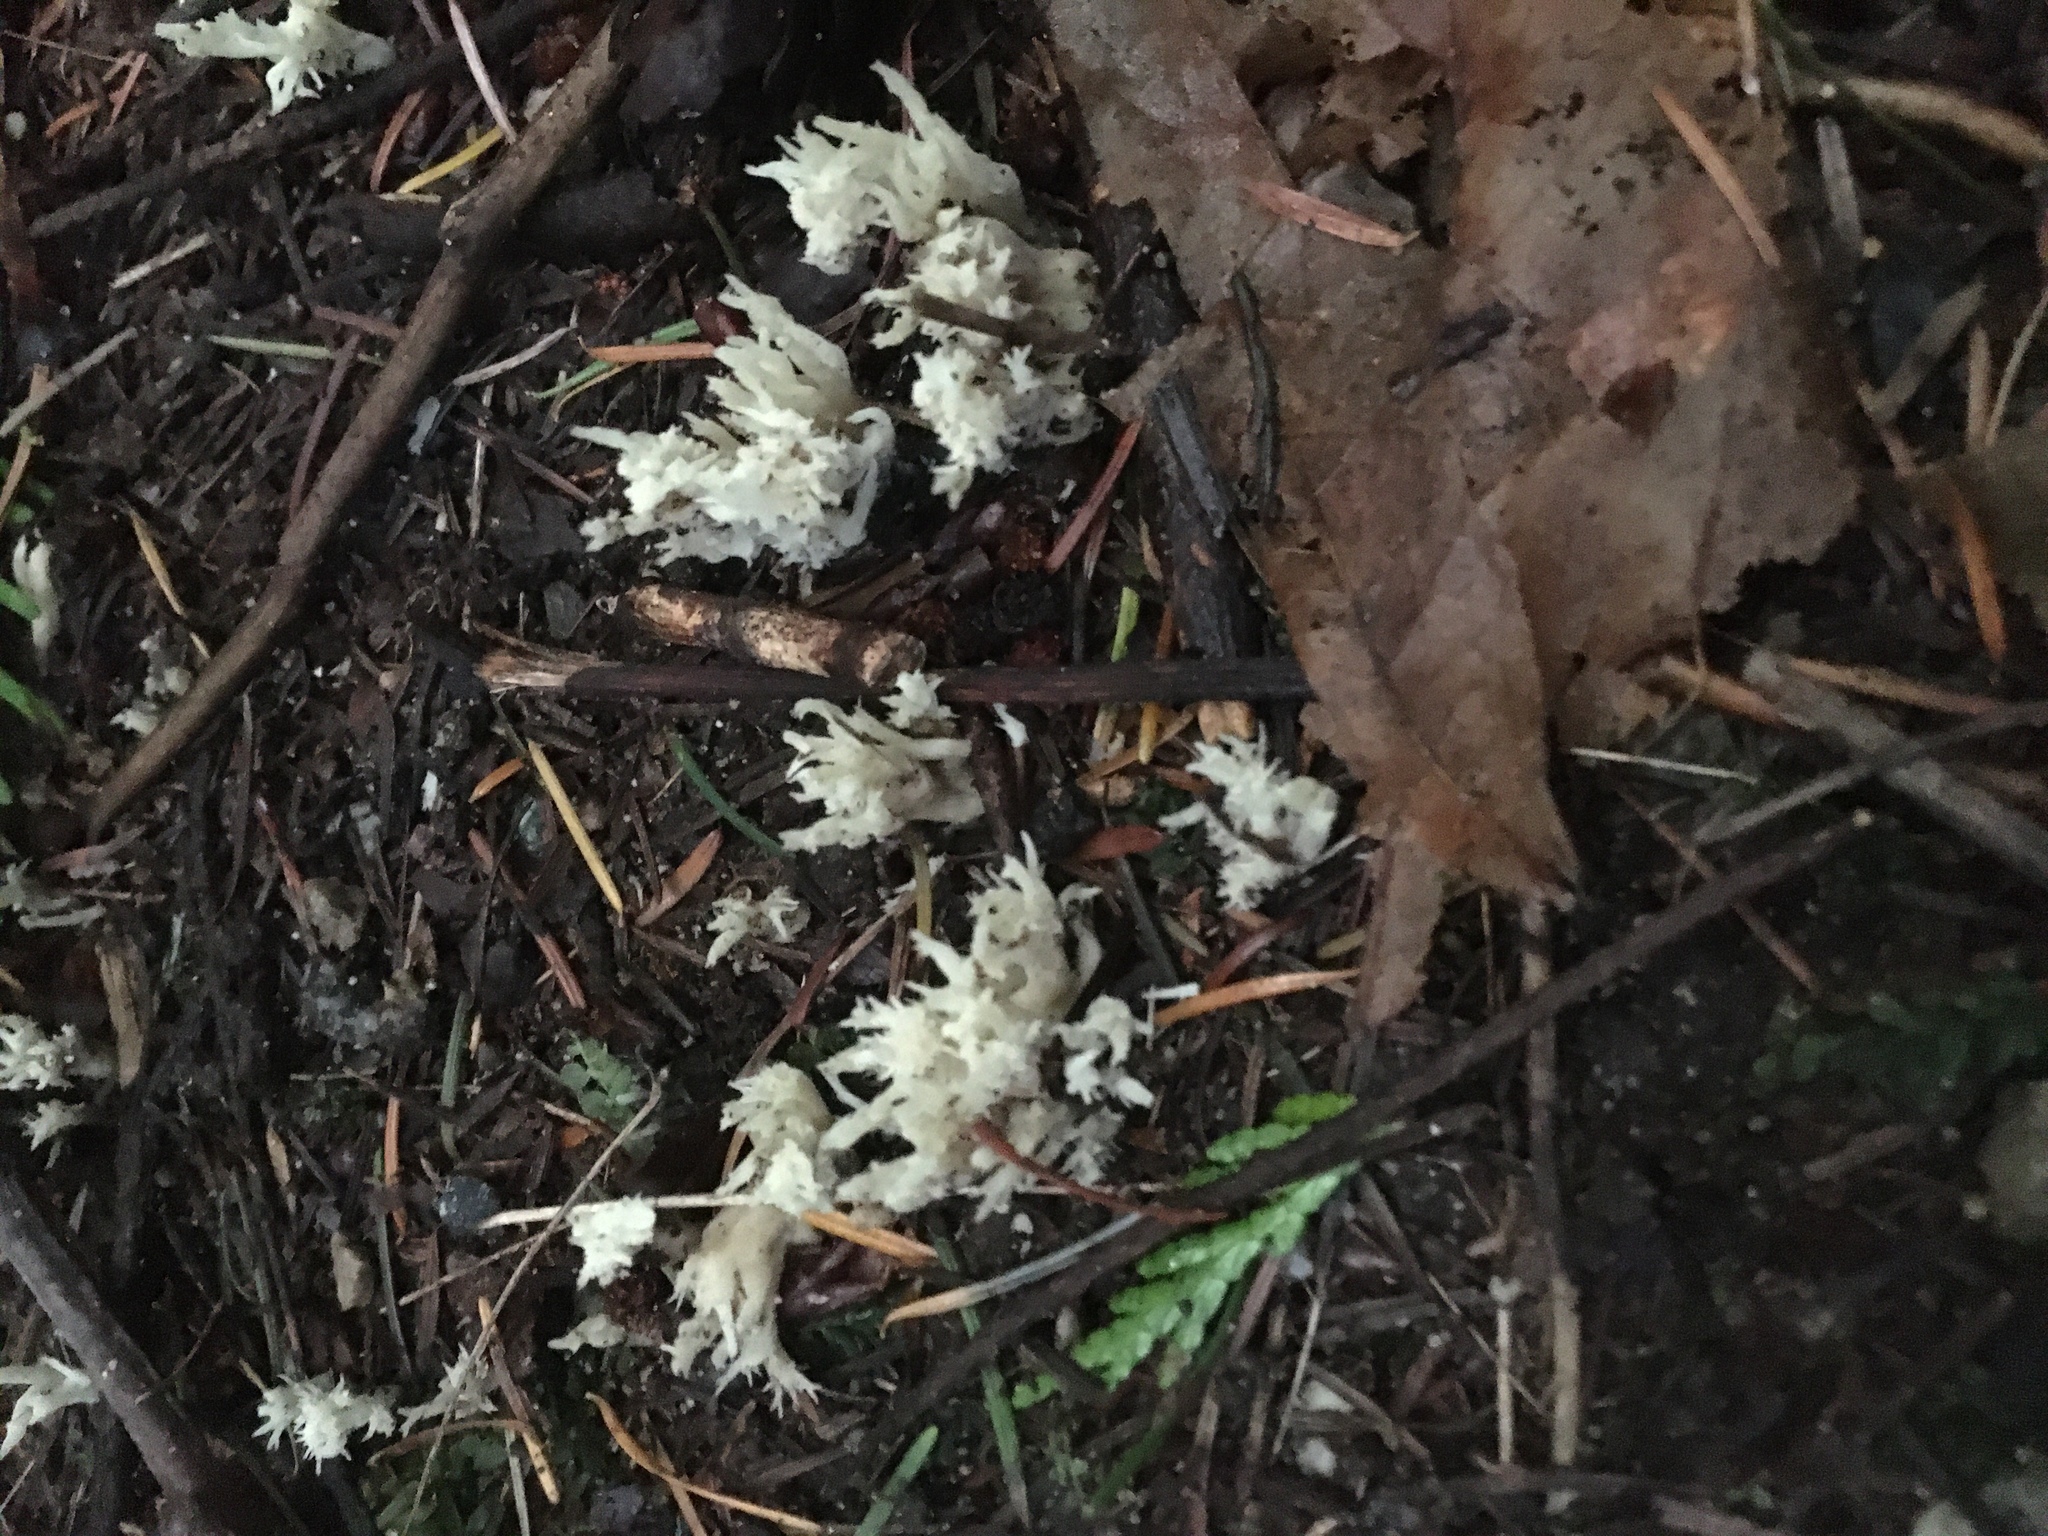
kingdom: Fungi
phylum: Basidiomycota
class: Agaricomycetes
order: Cantharellales
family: Hydnaceae
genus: Clavulina
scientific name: Clavulina coralloides
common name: Crested coral
